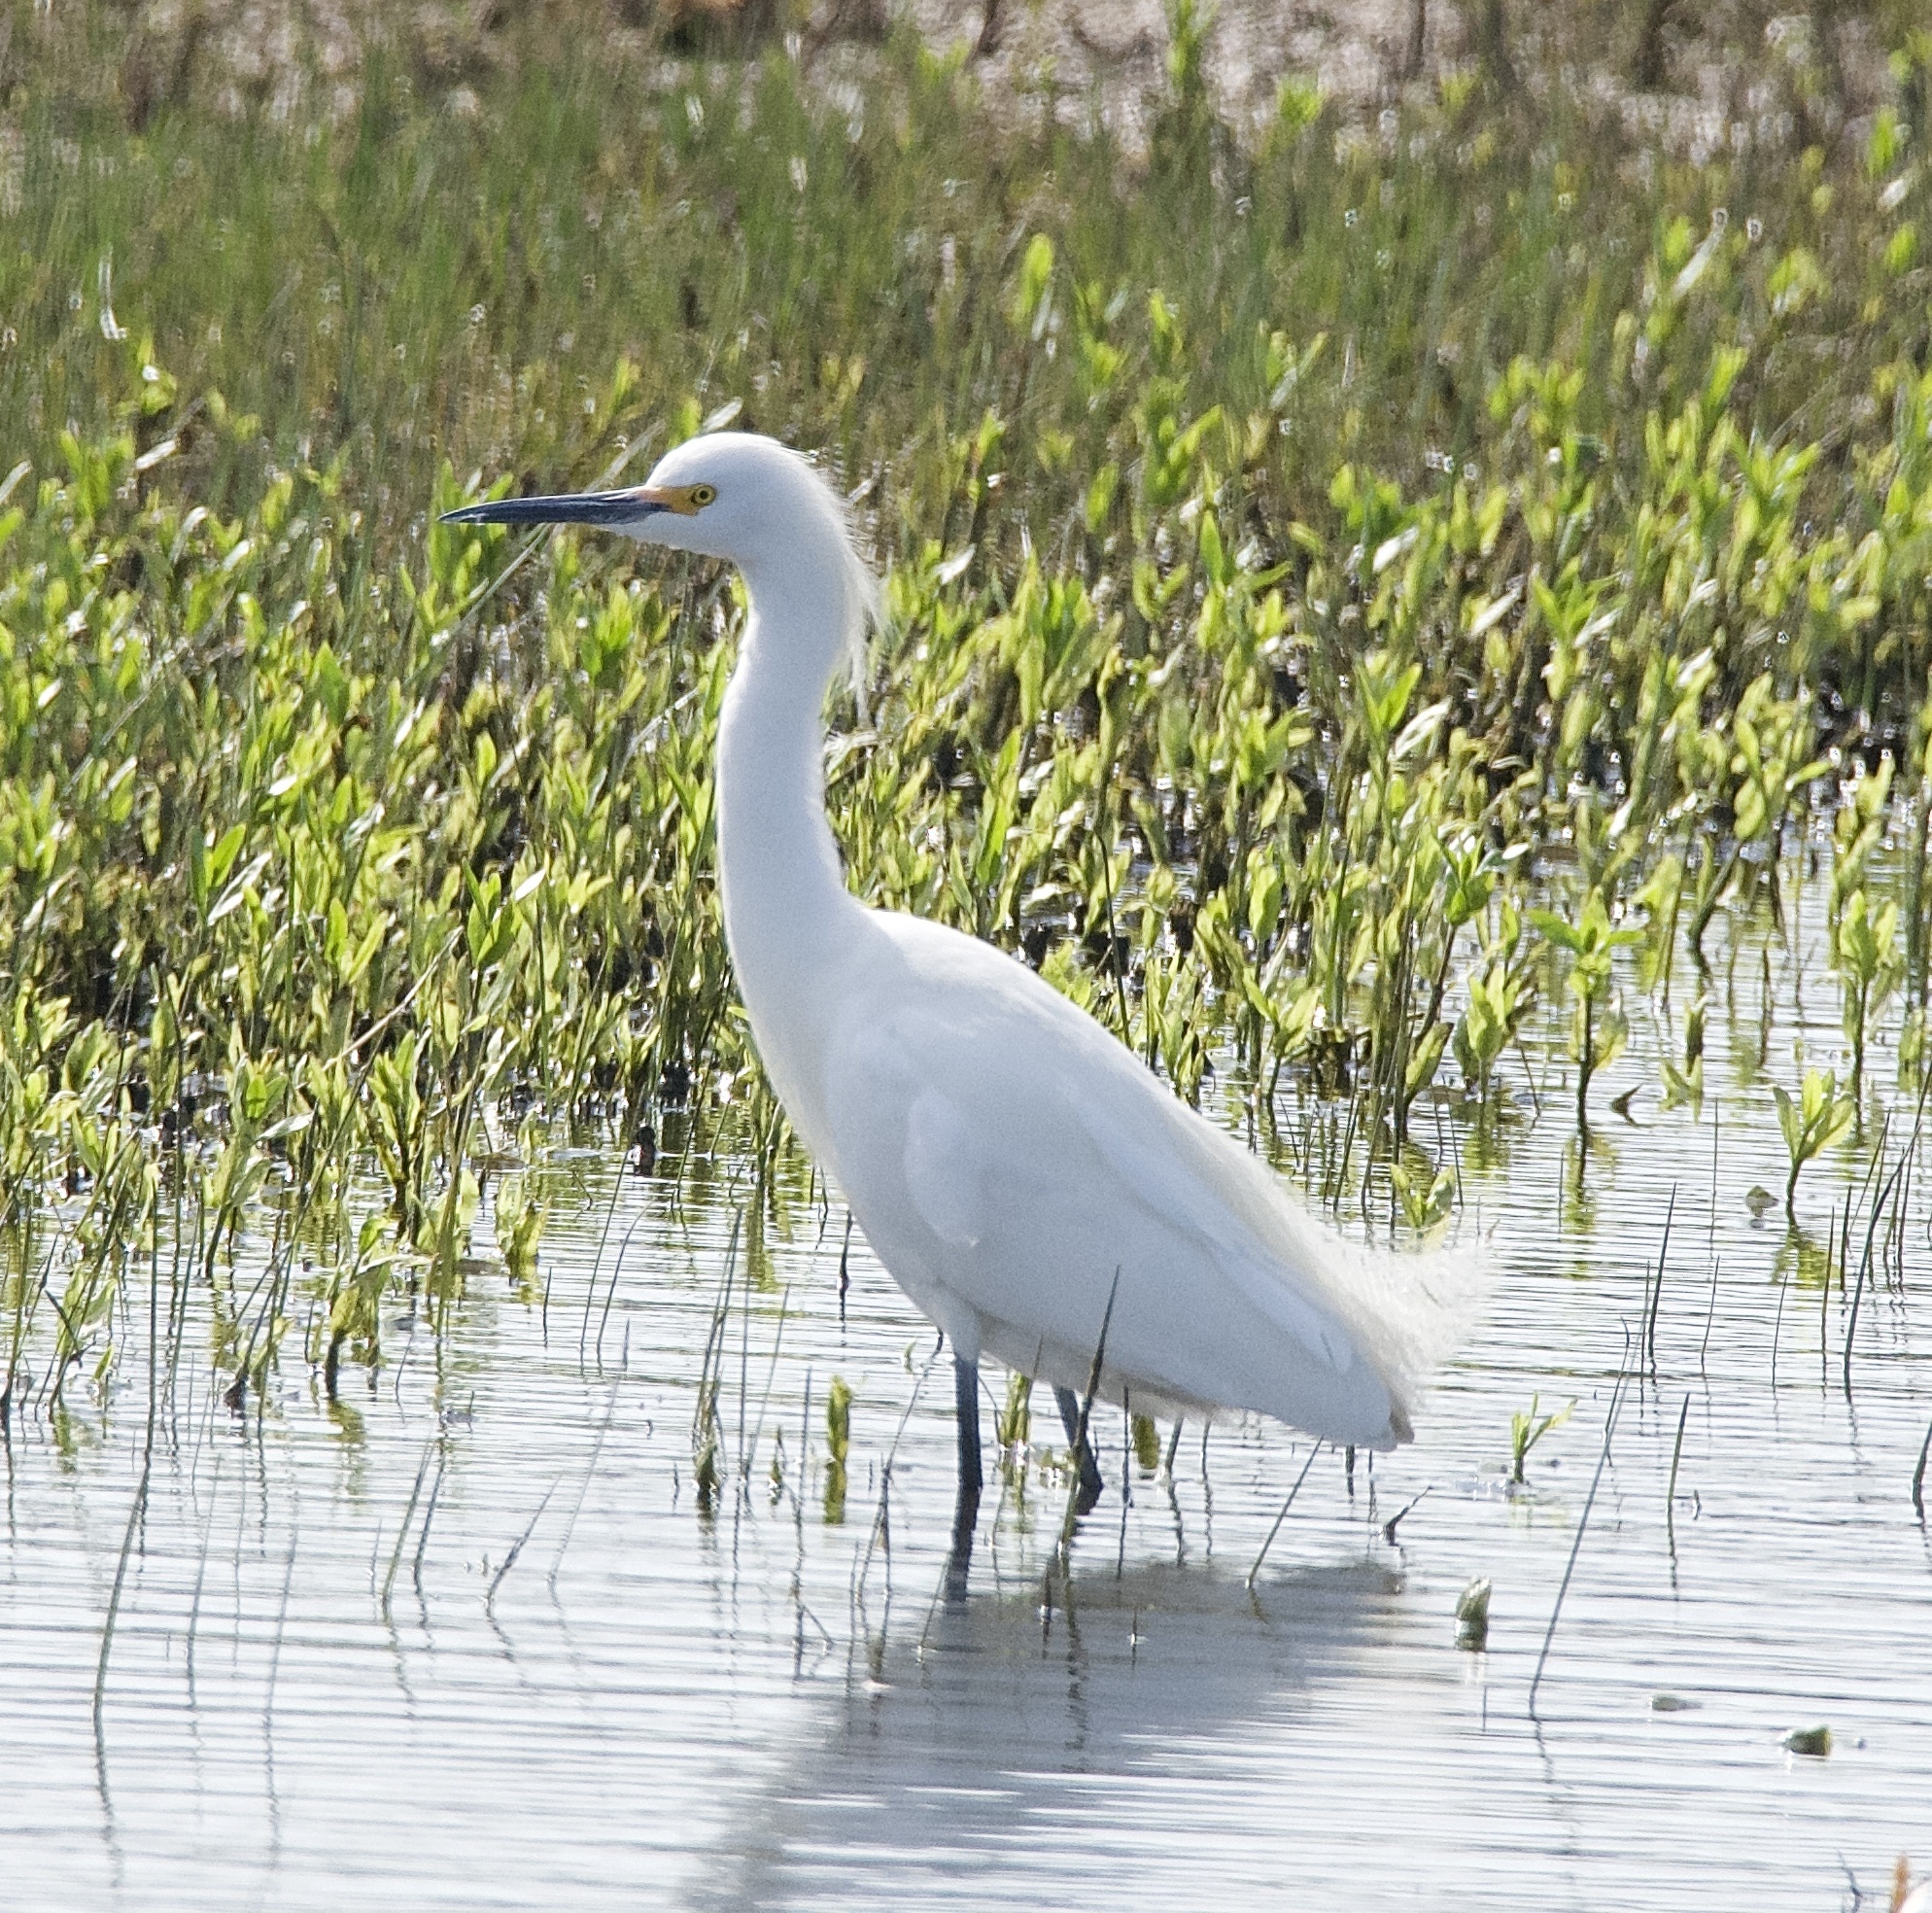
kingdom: Animalia
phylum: Chordata
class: Aves
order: Pelecaniformes
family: Ardeidae
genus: Egretta
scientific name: Egretta thula
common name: Snowy egret
